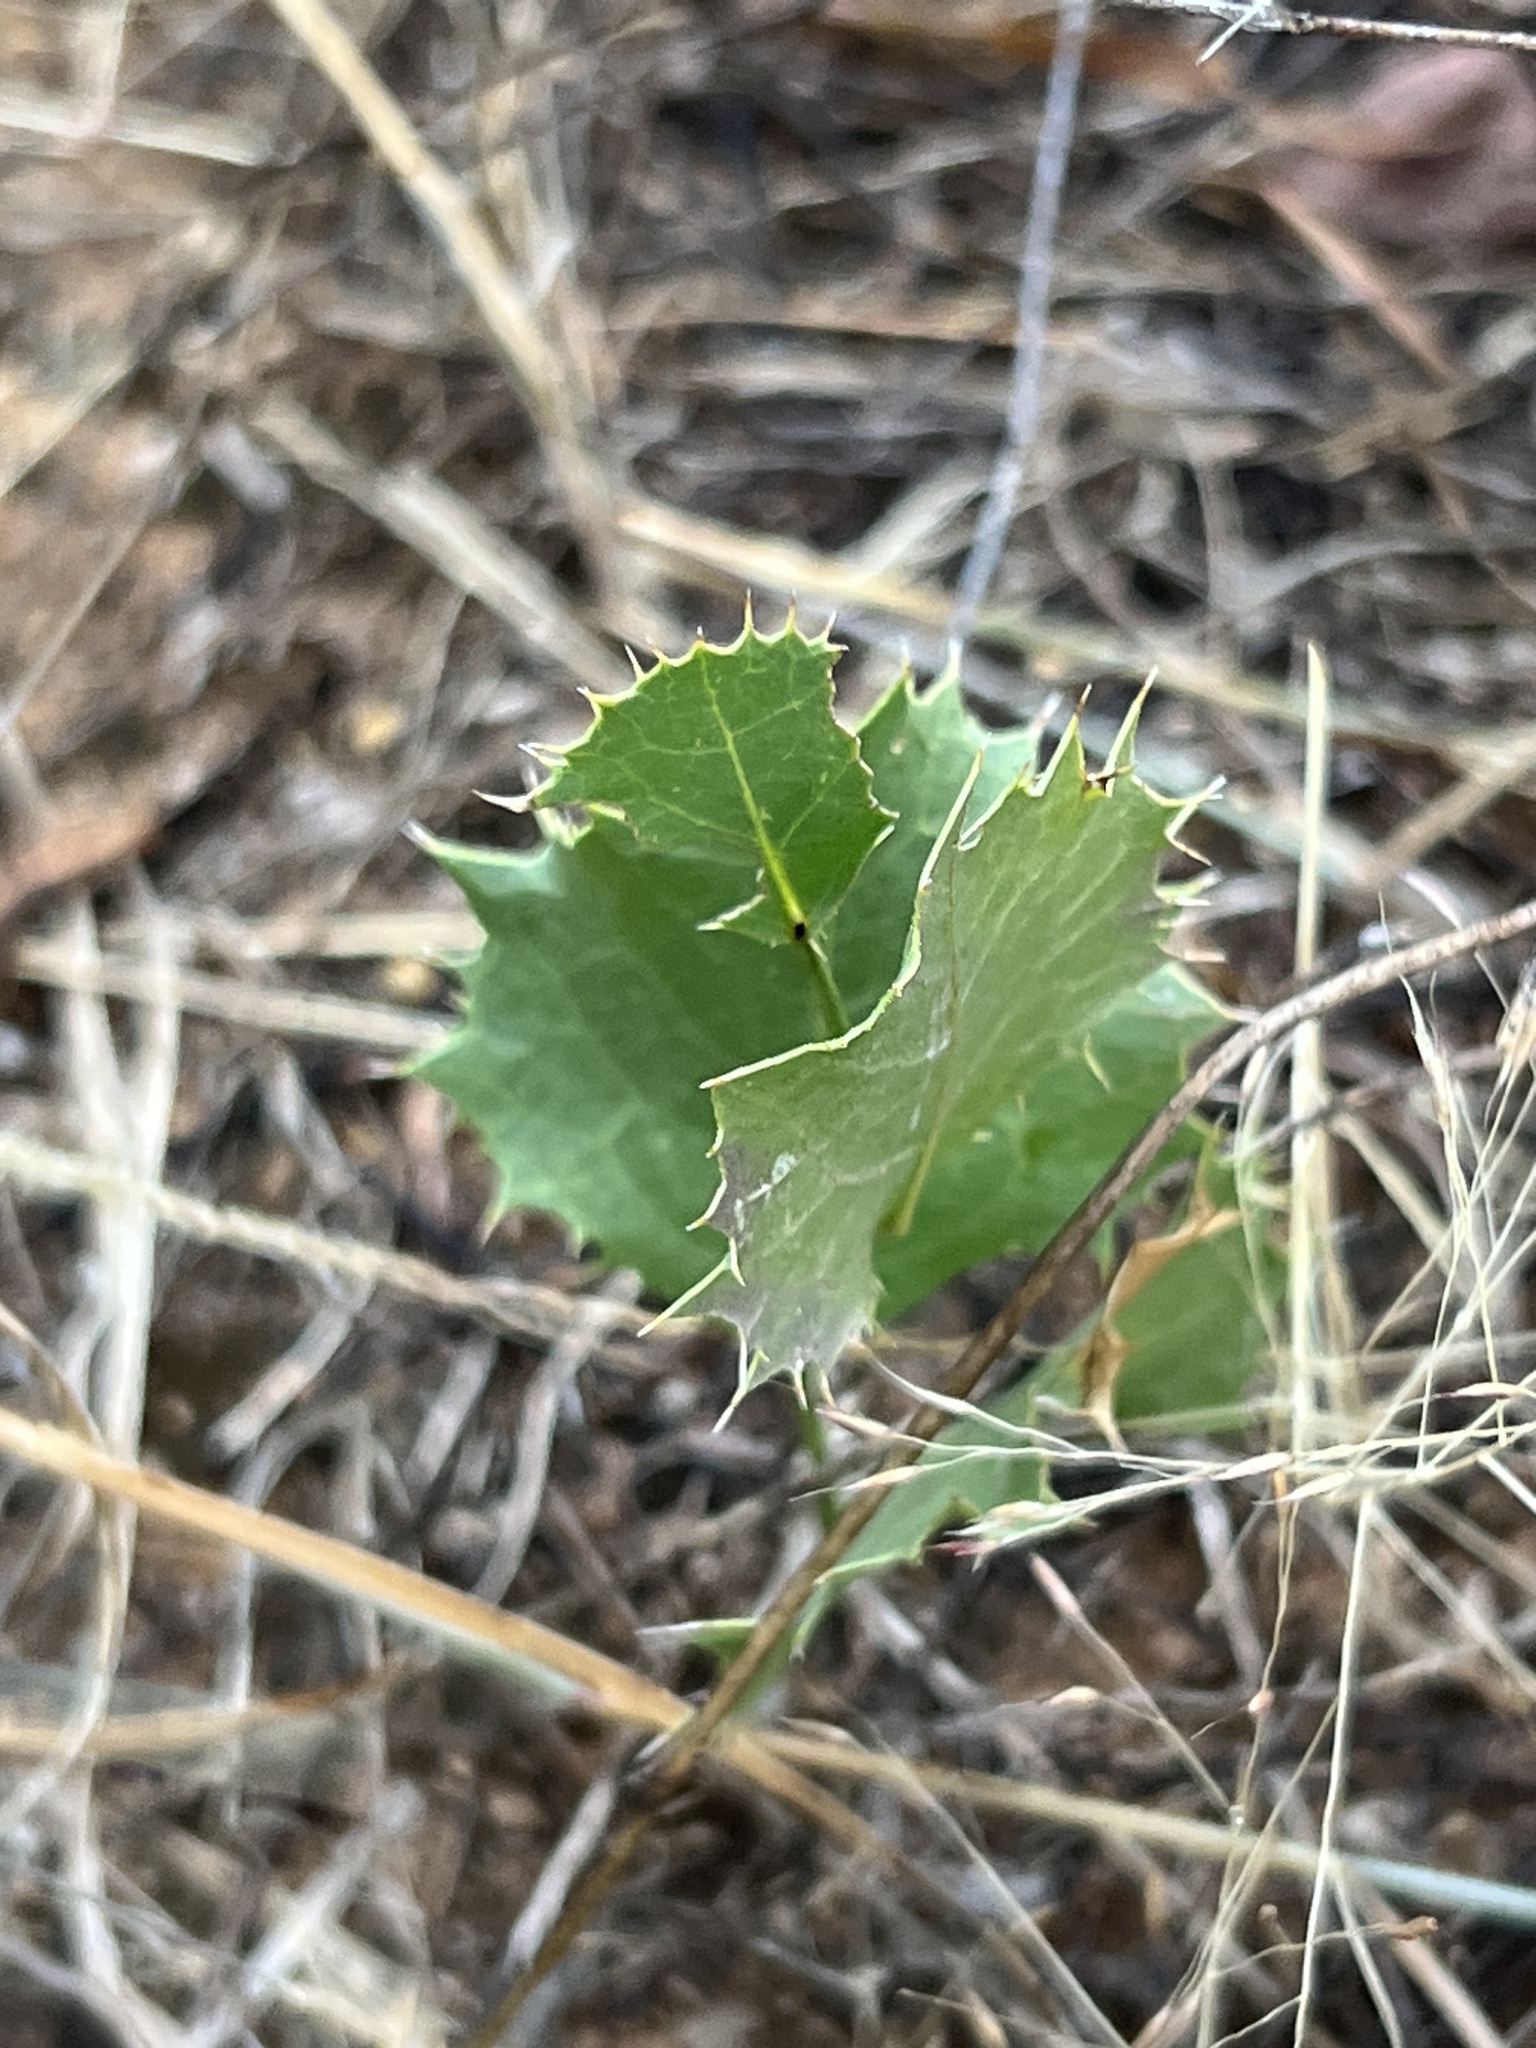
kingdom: Plantae
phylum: Tracheophyta
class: Magnoliopsida
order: Asterales
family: Asteraceae
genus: Acourtia
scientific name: Acourtia nana
